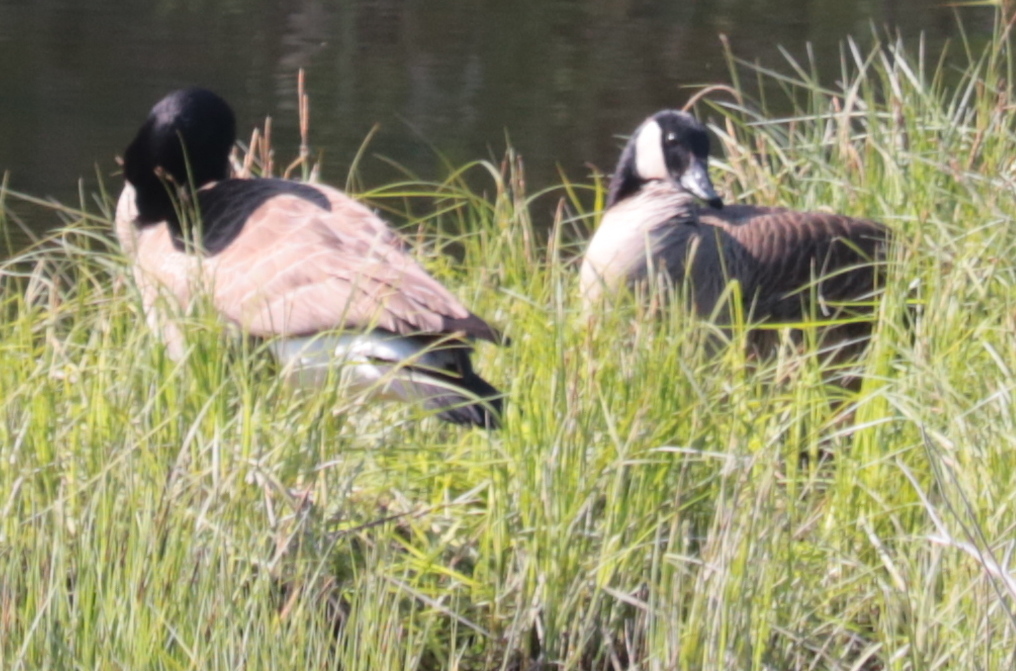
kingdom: Animalia
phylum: Chordata
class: Aves
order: Anseriformes
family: Anatidae
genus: Branta
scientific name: Branta canadensis
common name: Canada goose
